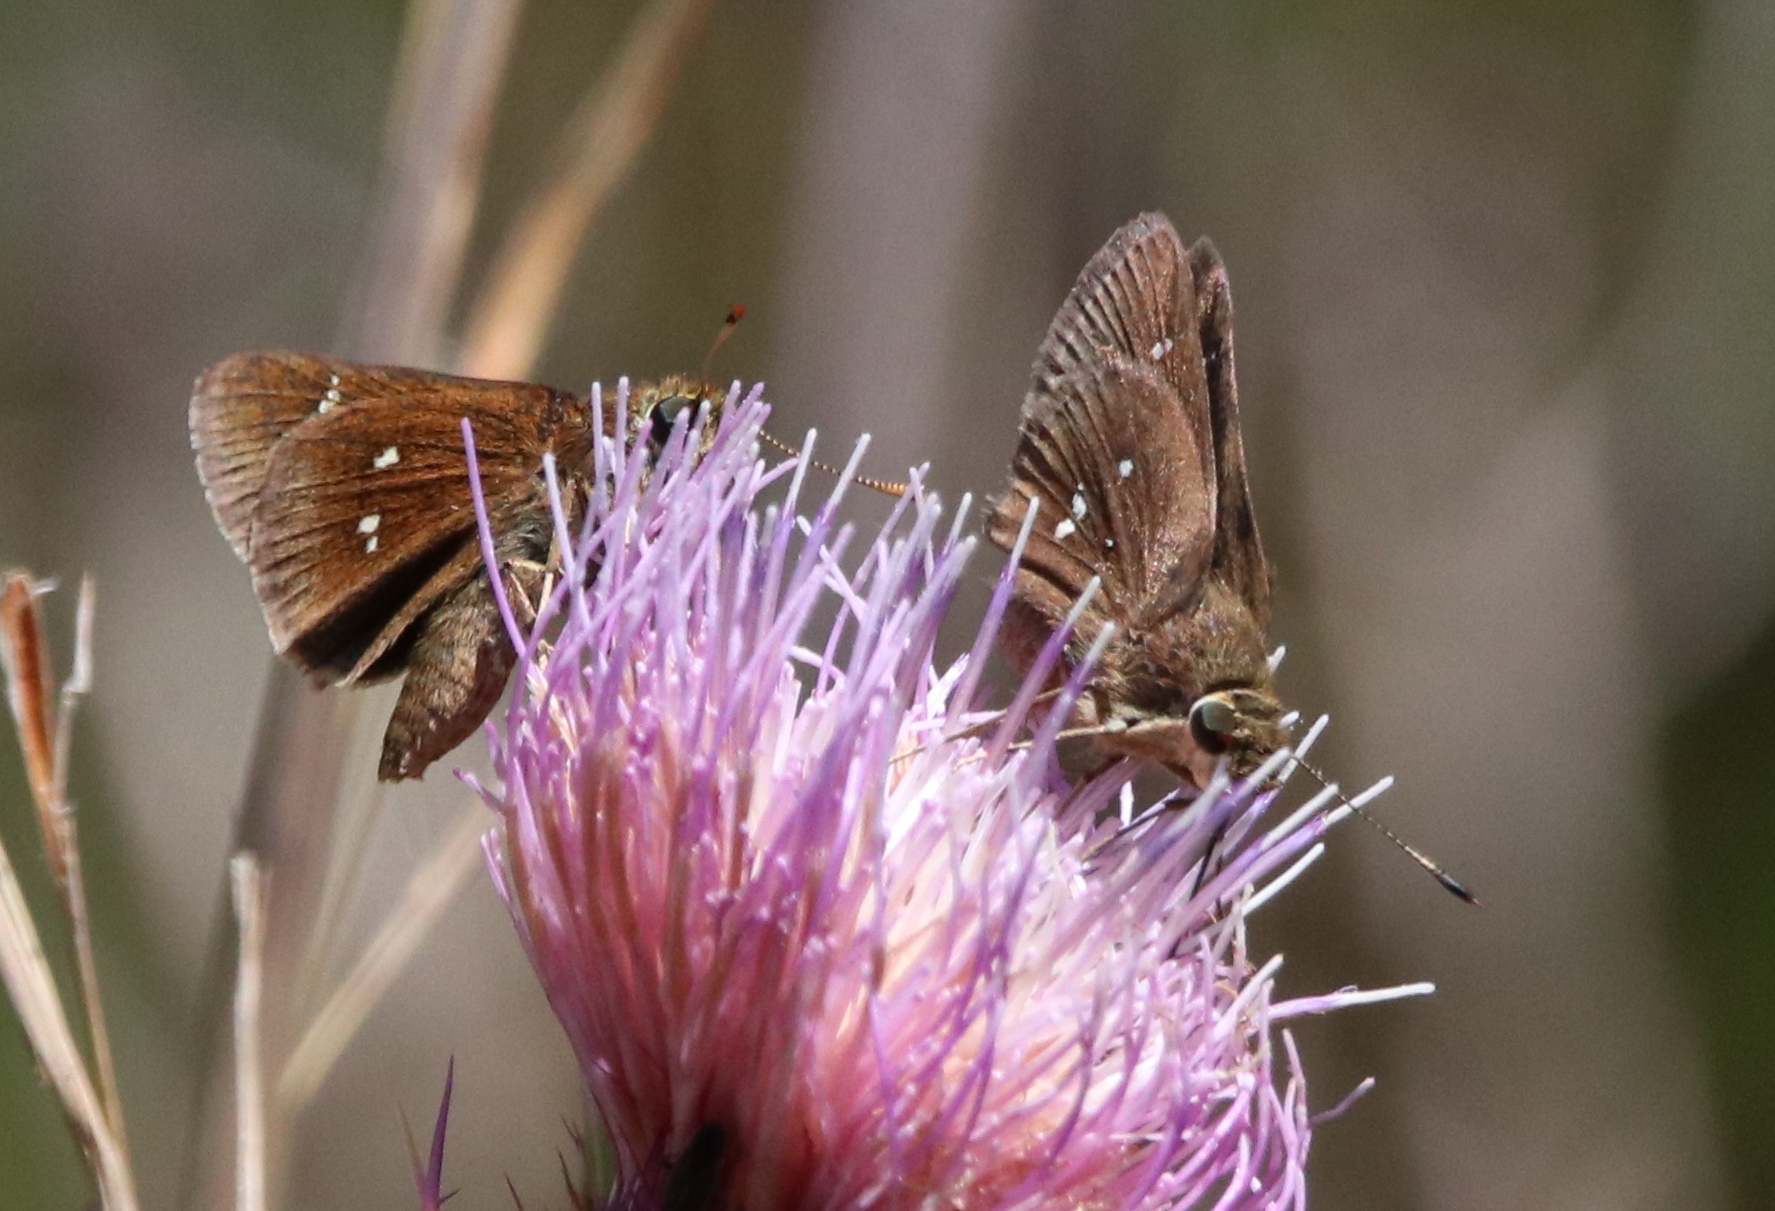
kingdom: Animalia
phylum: Arthropoda
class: Insecta
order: Lepidoptera
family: Hesperiidae
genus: Oligoria
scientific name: Oligoria maculata
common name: Twin-spot skipper
